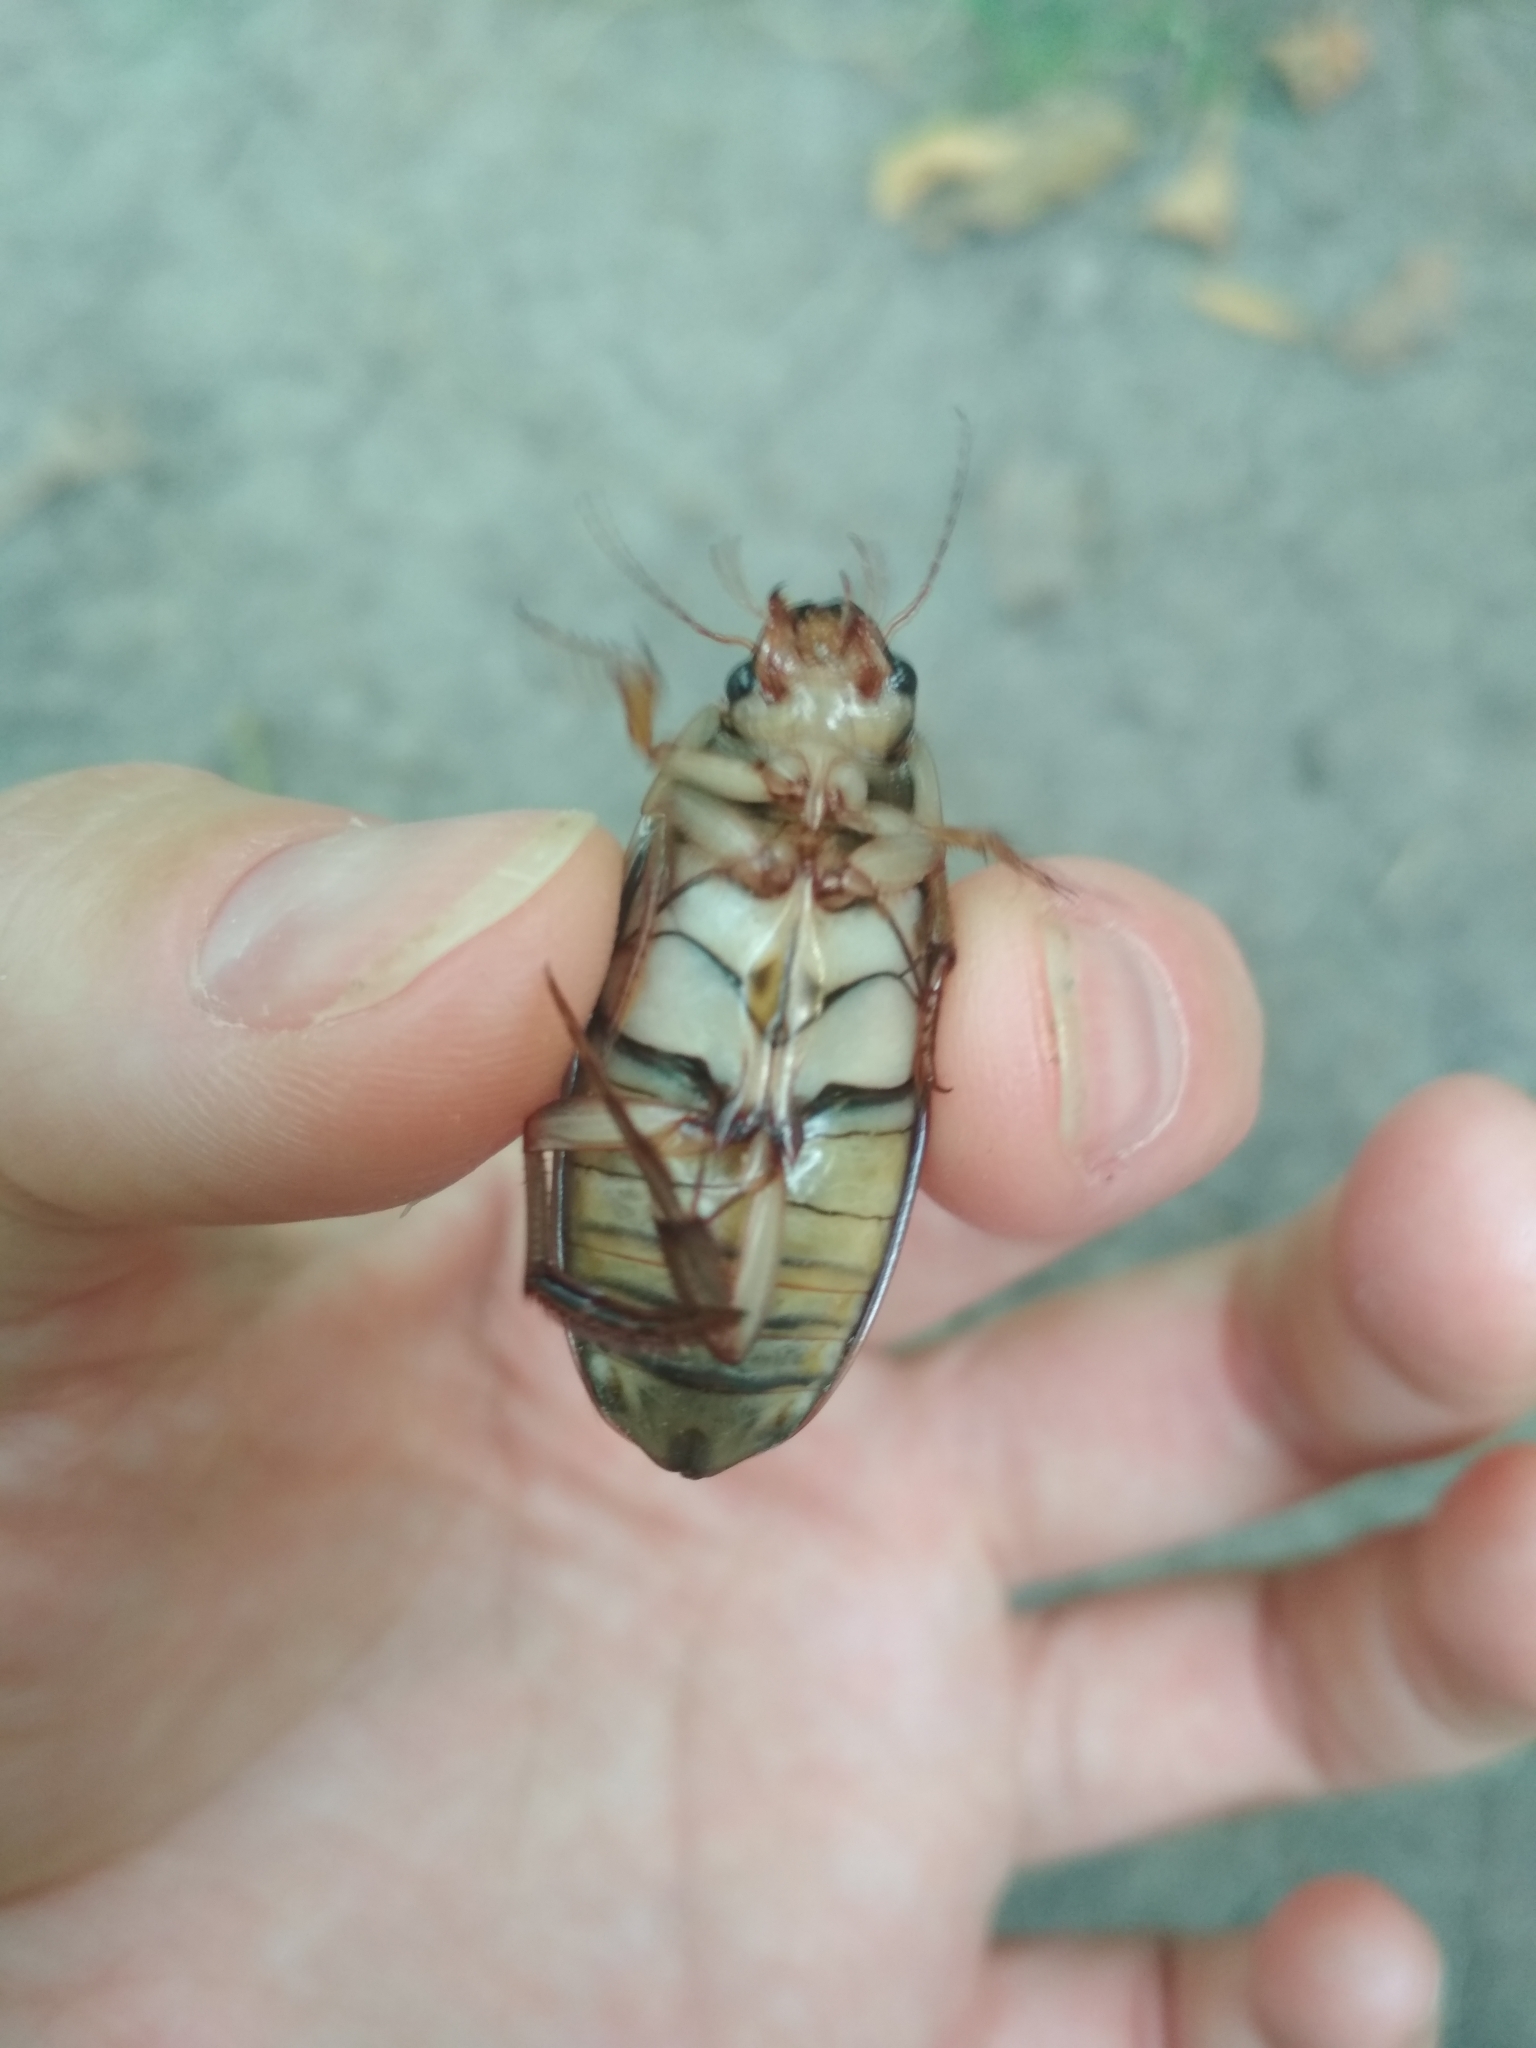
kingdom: Animalia
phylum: Arthropoda
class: Insecta
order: Coleoptera
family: Dytiscidae
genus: Dytiscus
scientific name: Dytiscus circumcinctus
